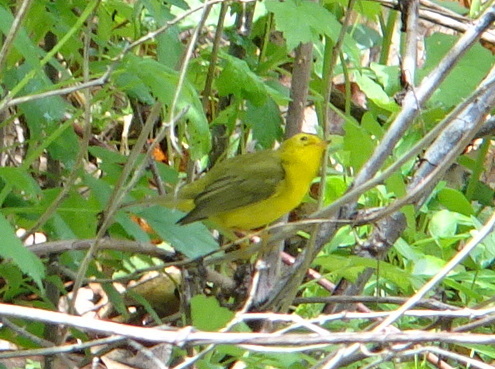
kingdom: Animalia
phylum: Chordata
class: Aves
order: Passeriformes
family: Parulidae
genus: Cardellina
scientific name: Cardellina pusilla
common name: Wilson's warbler
